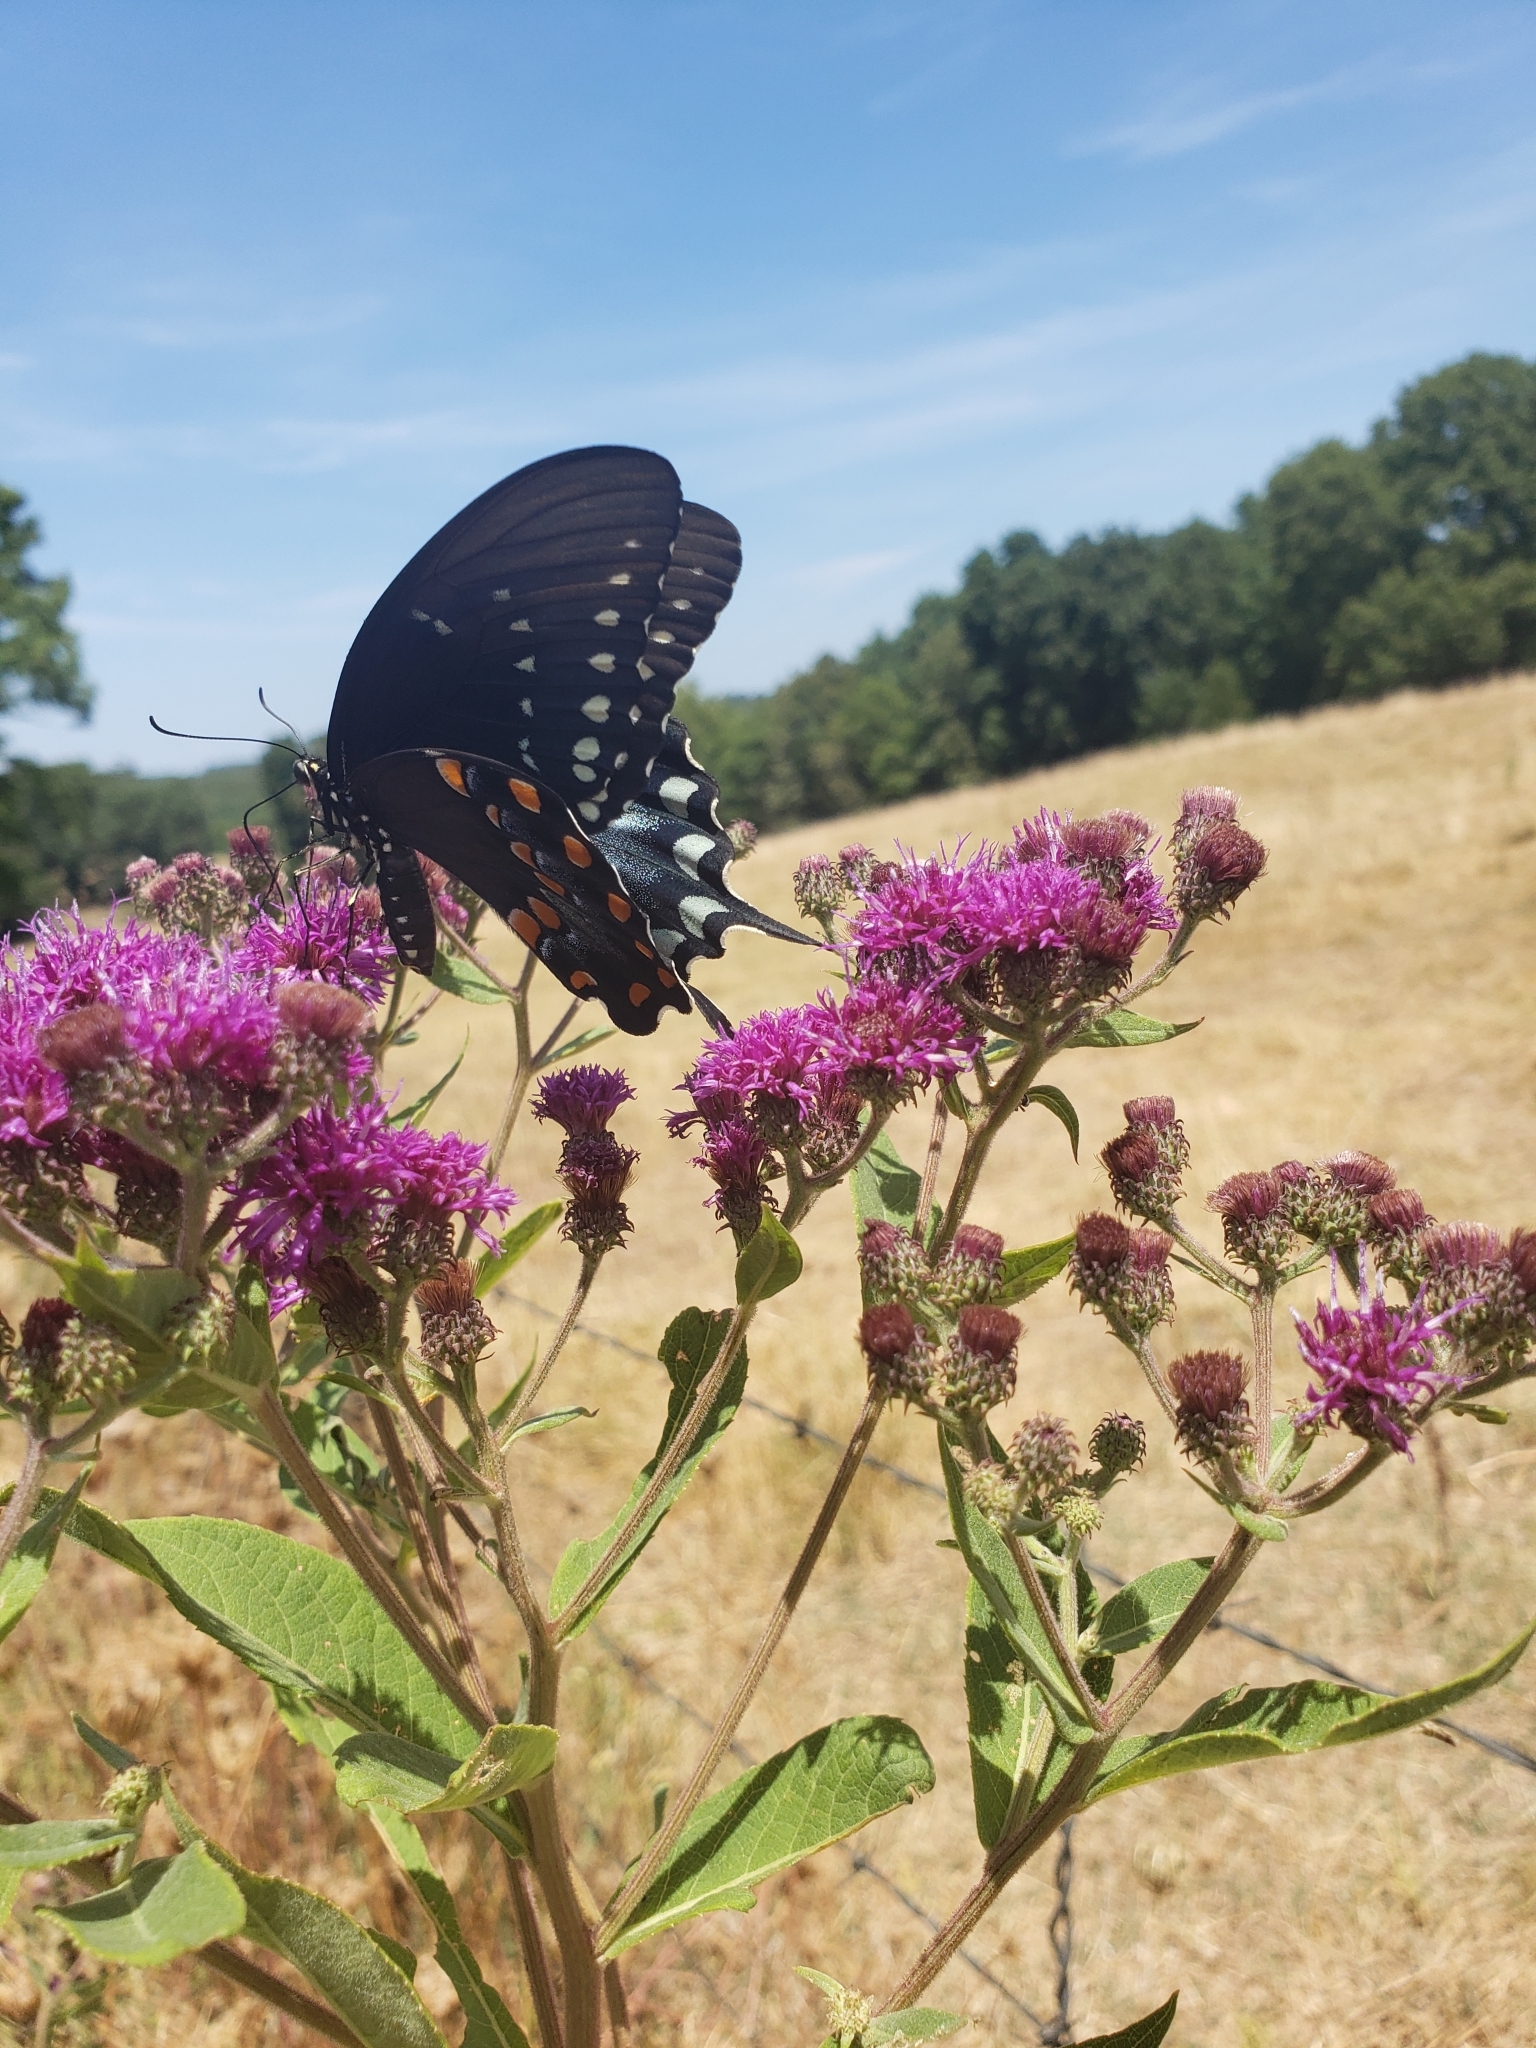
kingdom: Animalia
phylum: Arthropoda
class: Insecta
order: Lepidoptera
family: Papilionidae
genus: Papilio
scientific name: Papilio troilus
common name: Spicebush swallowtail
